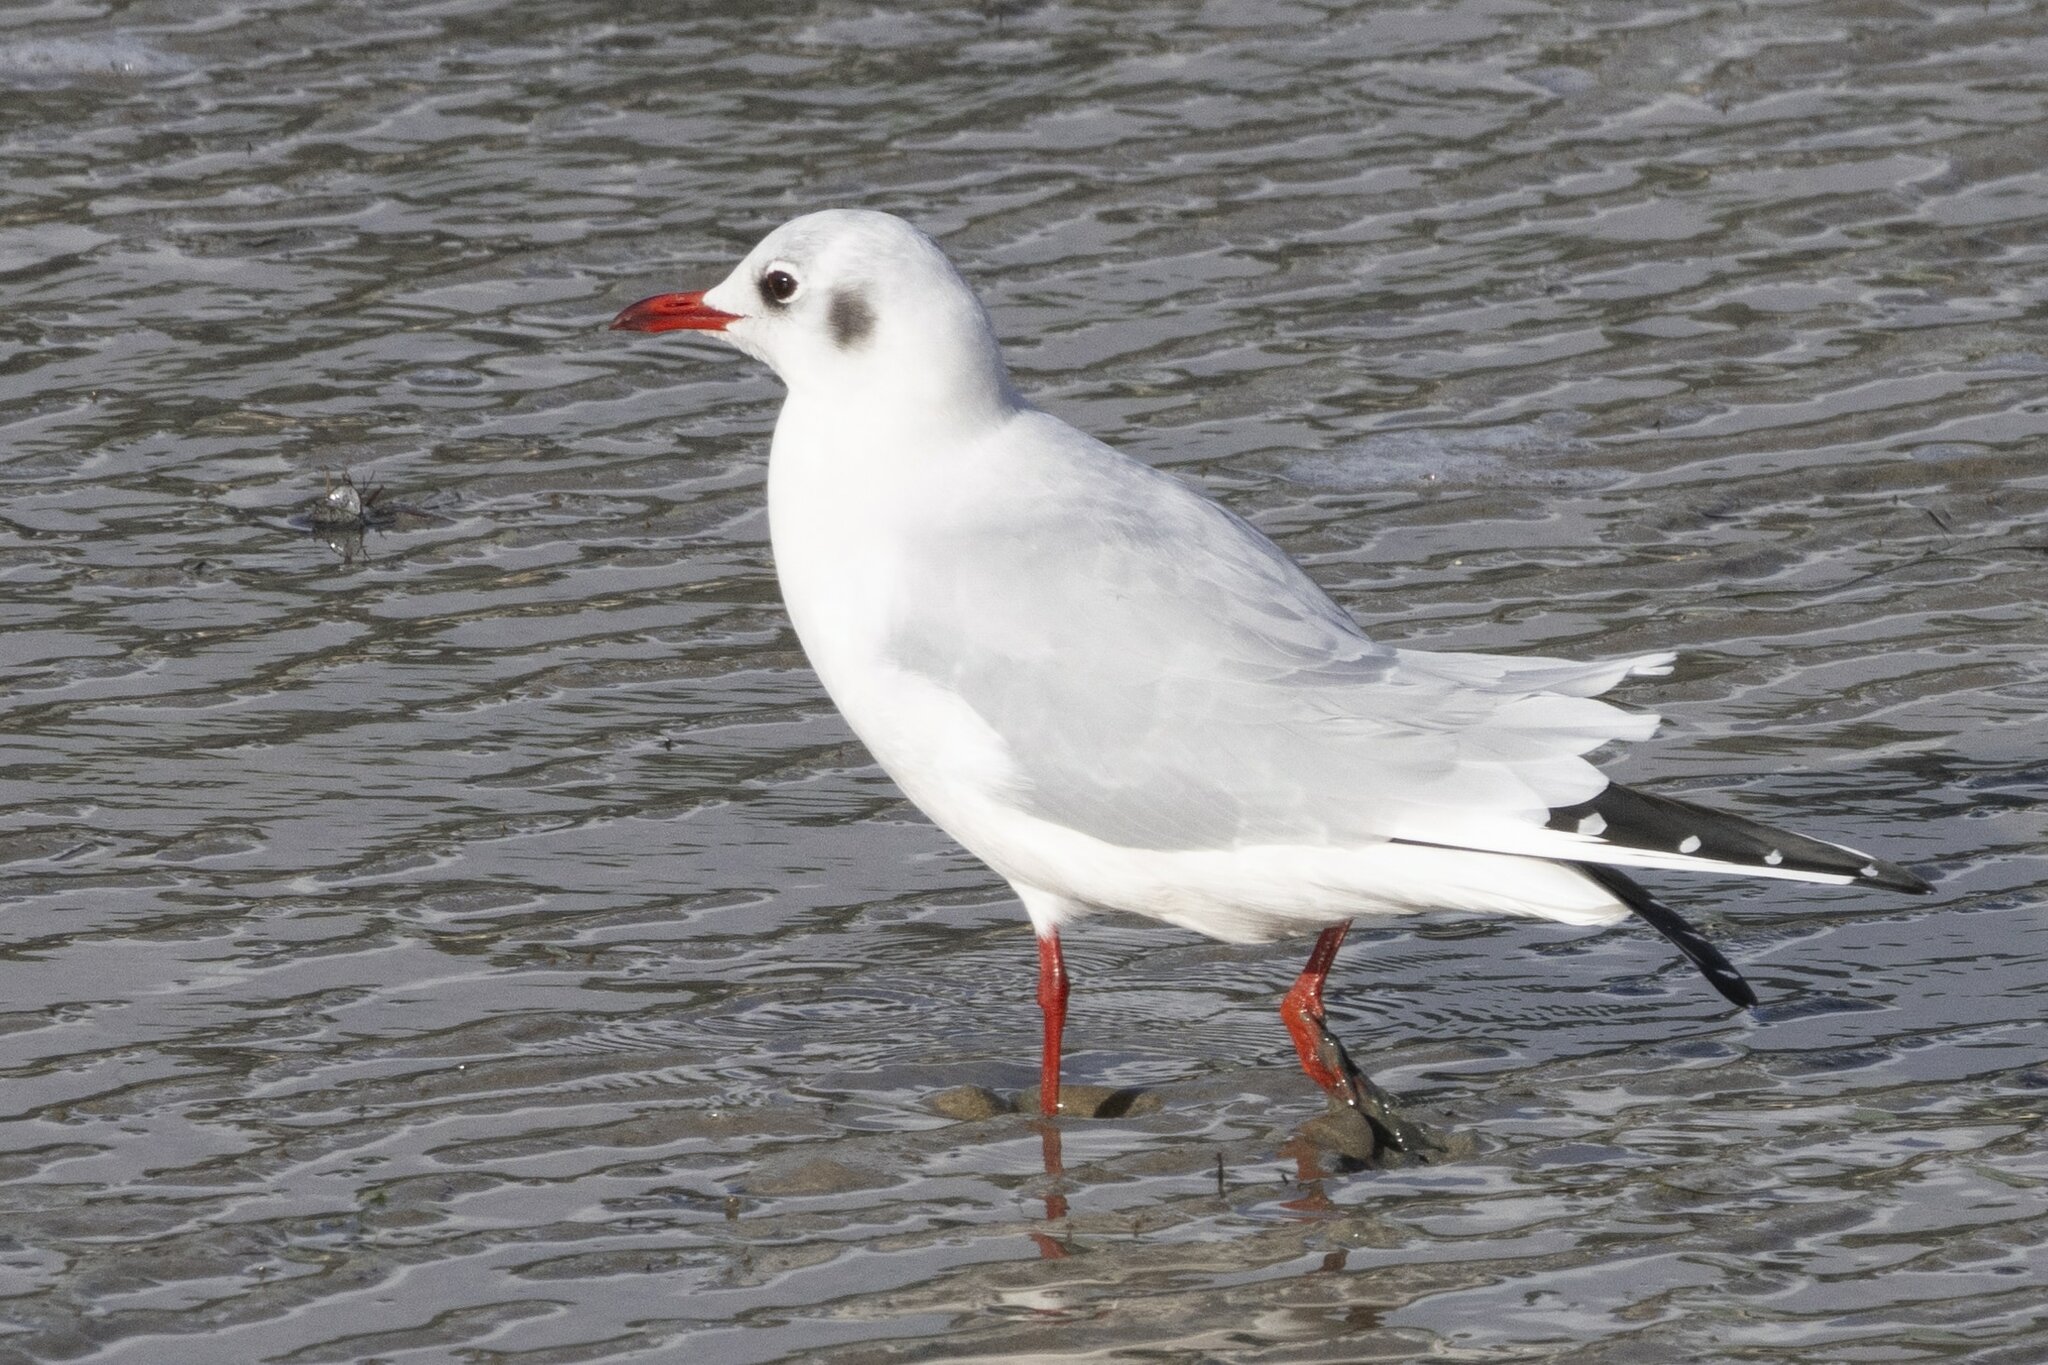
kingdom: Animalia
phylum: Chordata
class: Aves
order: Charadriiformes
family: Laridae
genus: Chroicocephalus
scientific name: Chroicocephalus ridibundus
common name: Black-headed gull
